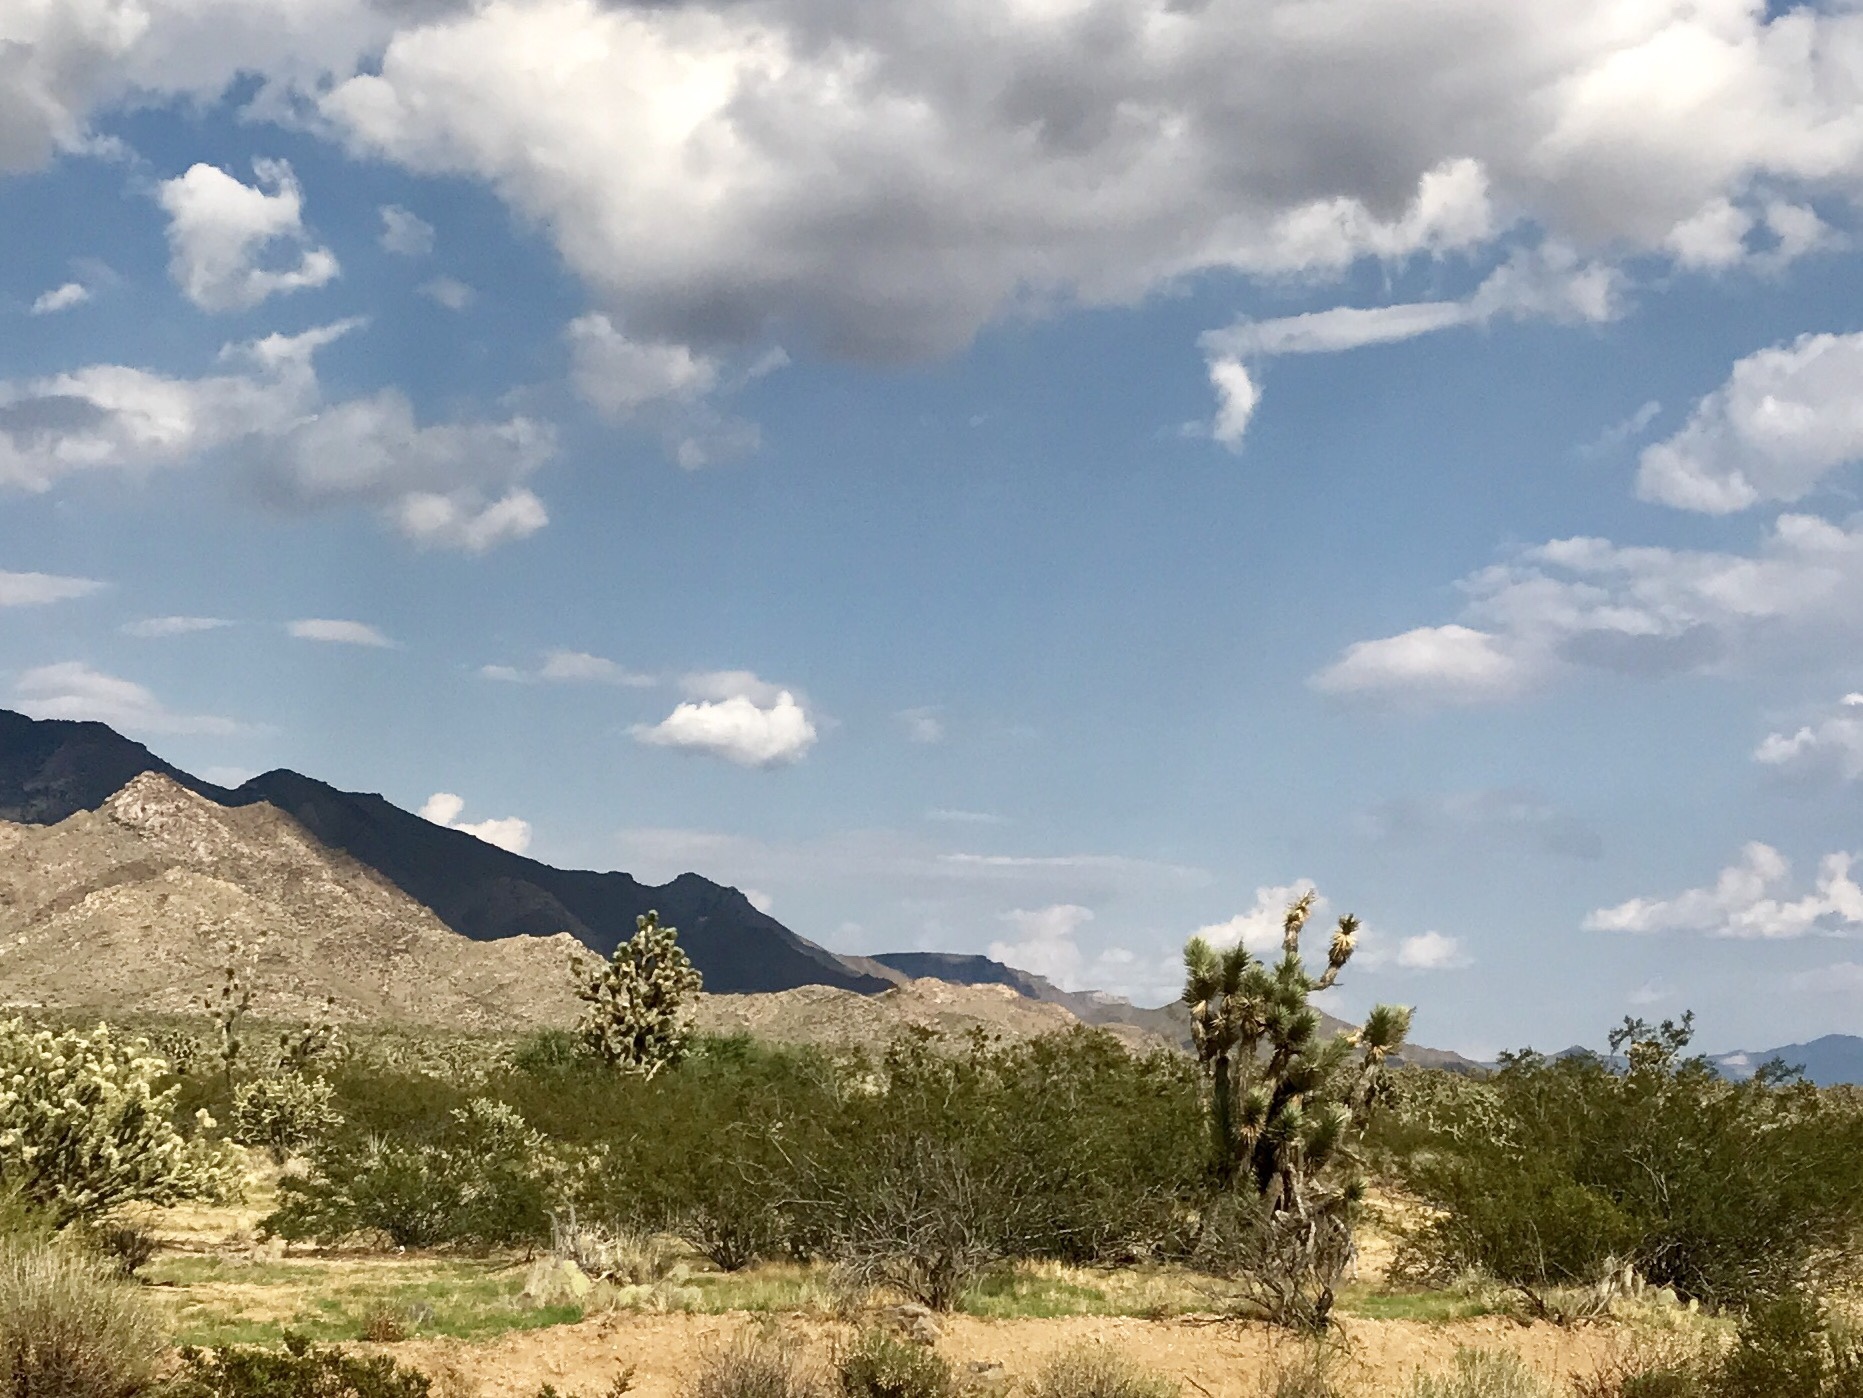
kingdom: Plantae
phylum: Tracheophyta
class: Magnoliopsida
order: Zygophyllales
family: Zygophyllaceae
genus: Larrea
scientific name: Larrea tridentata
